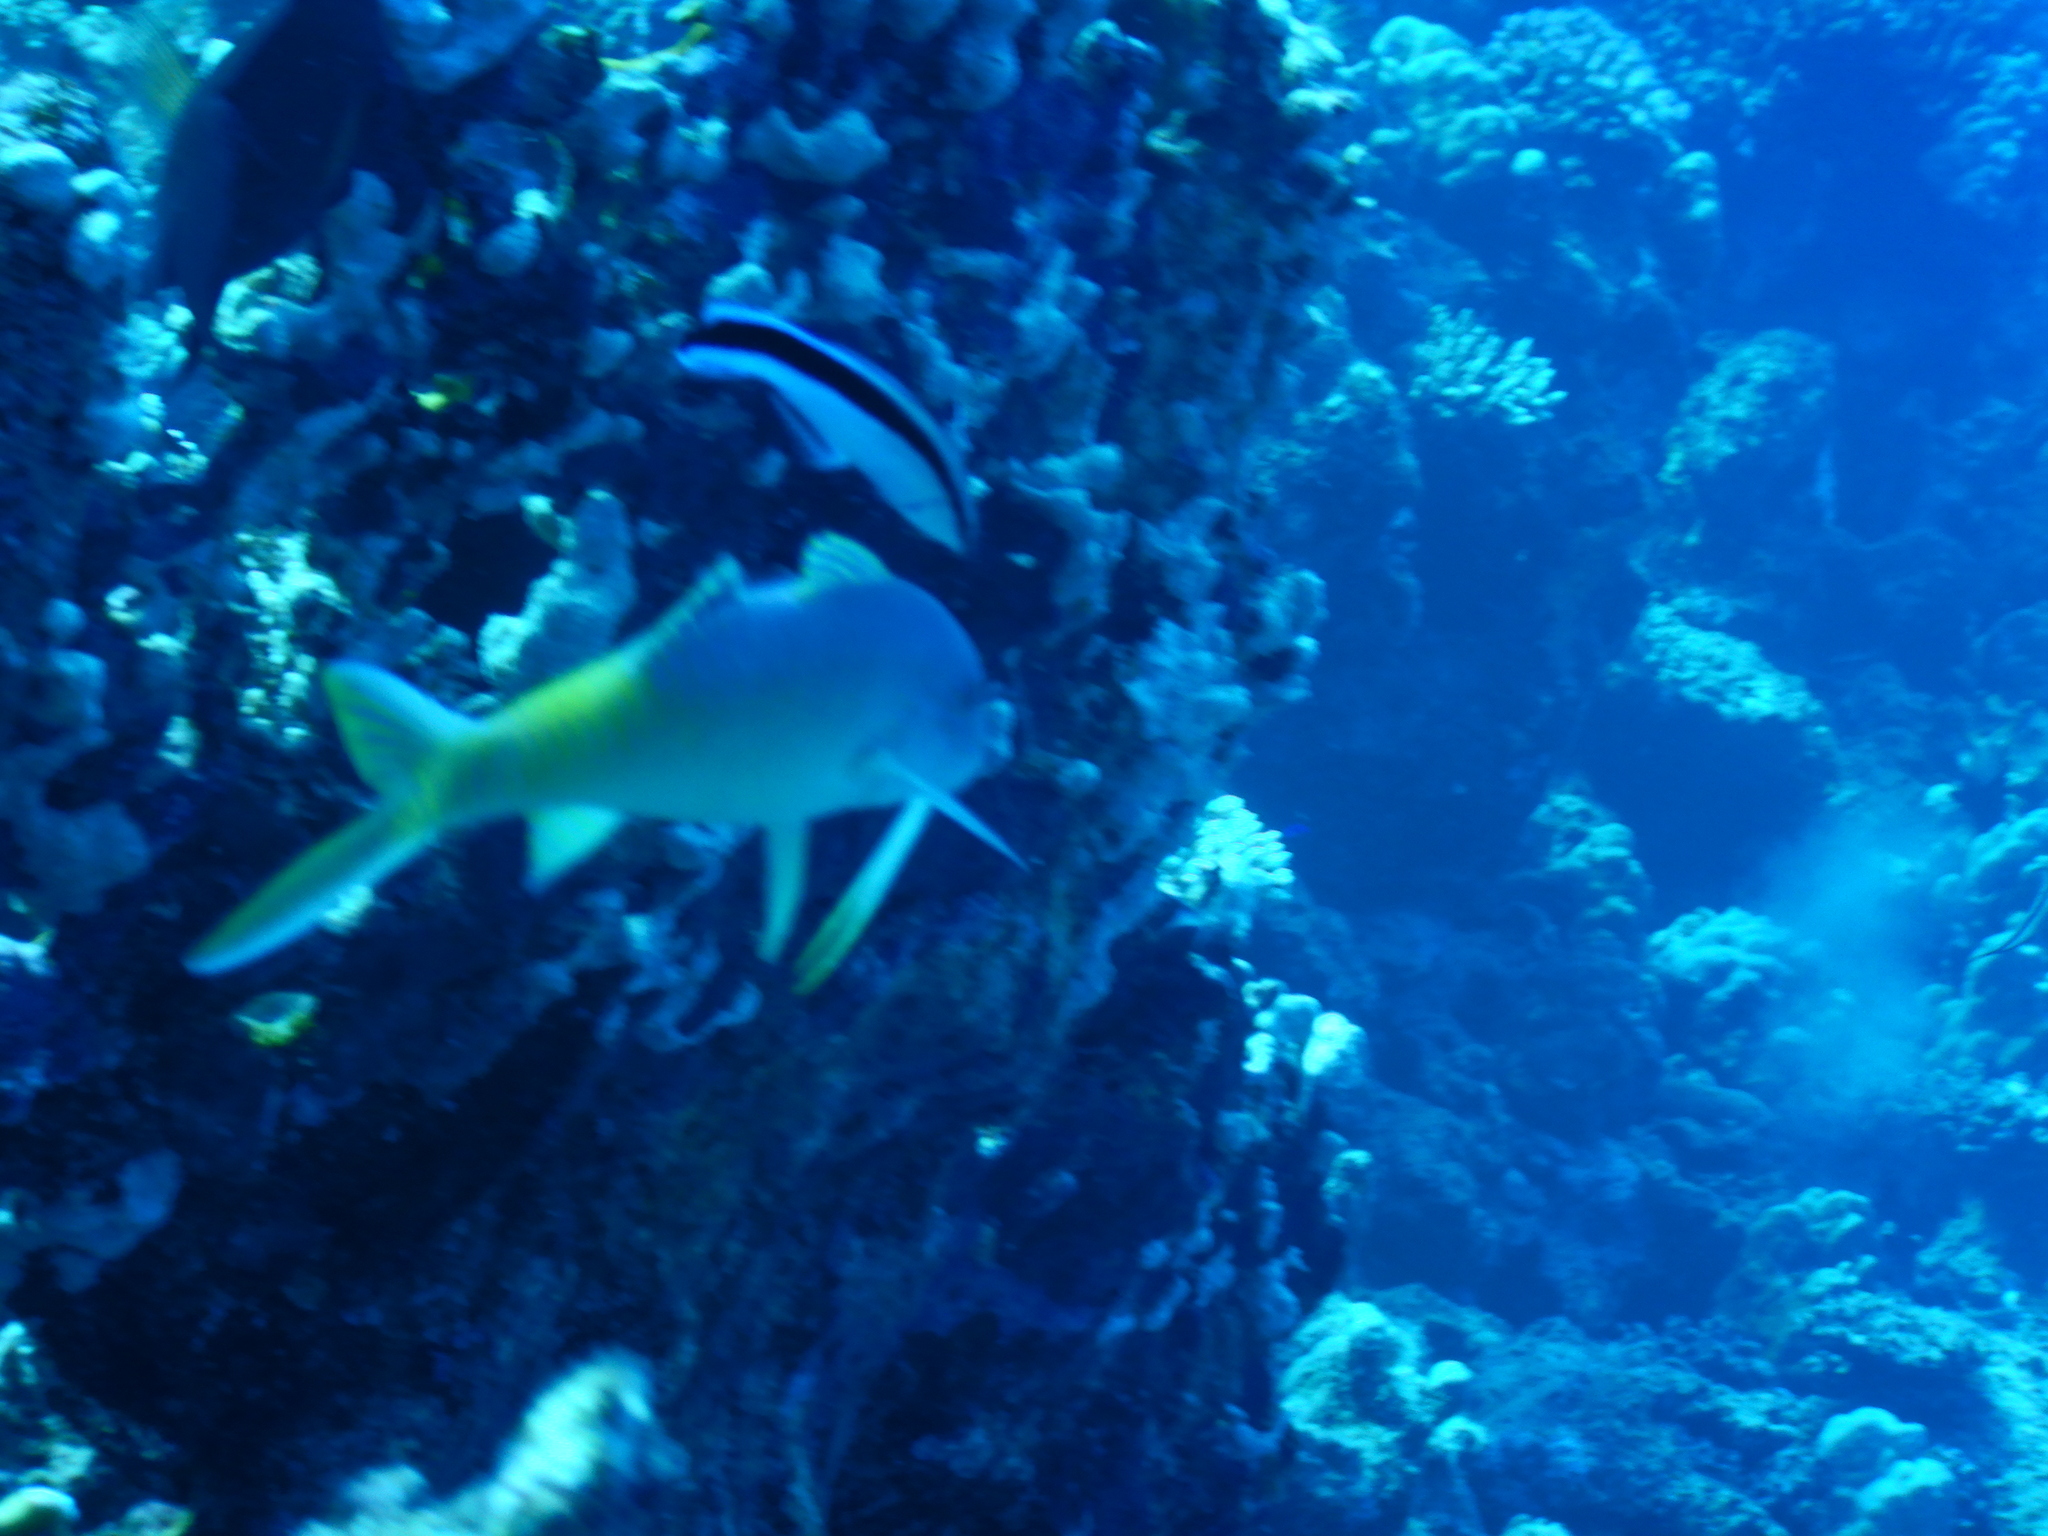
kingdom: Animalia
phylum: Chordata
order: Perciformes
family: Labridae
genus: Labroides
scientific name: Labroides dimidiatus
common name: Blue diesel wrasse
